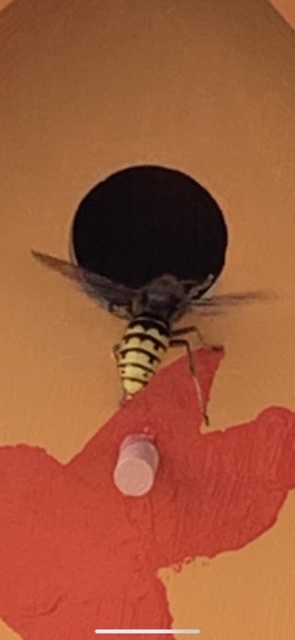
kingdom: Animalia
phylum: Arthropoda
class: Insecta
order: Hymenoptera
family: Vespidae
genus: Vespa
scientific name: Vespa crabro
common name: Hornet
